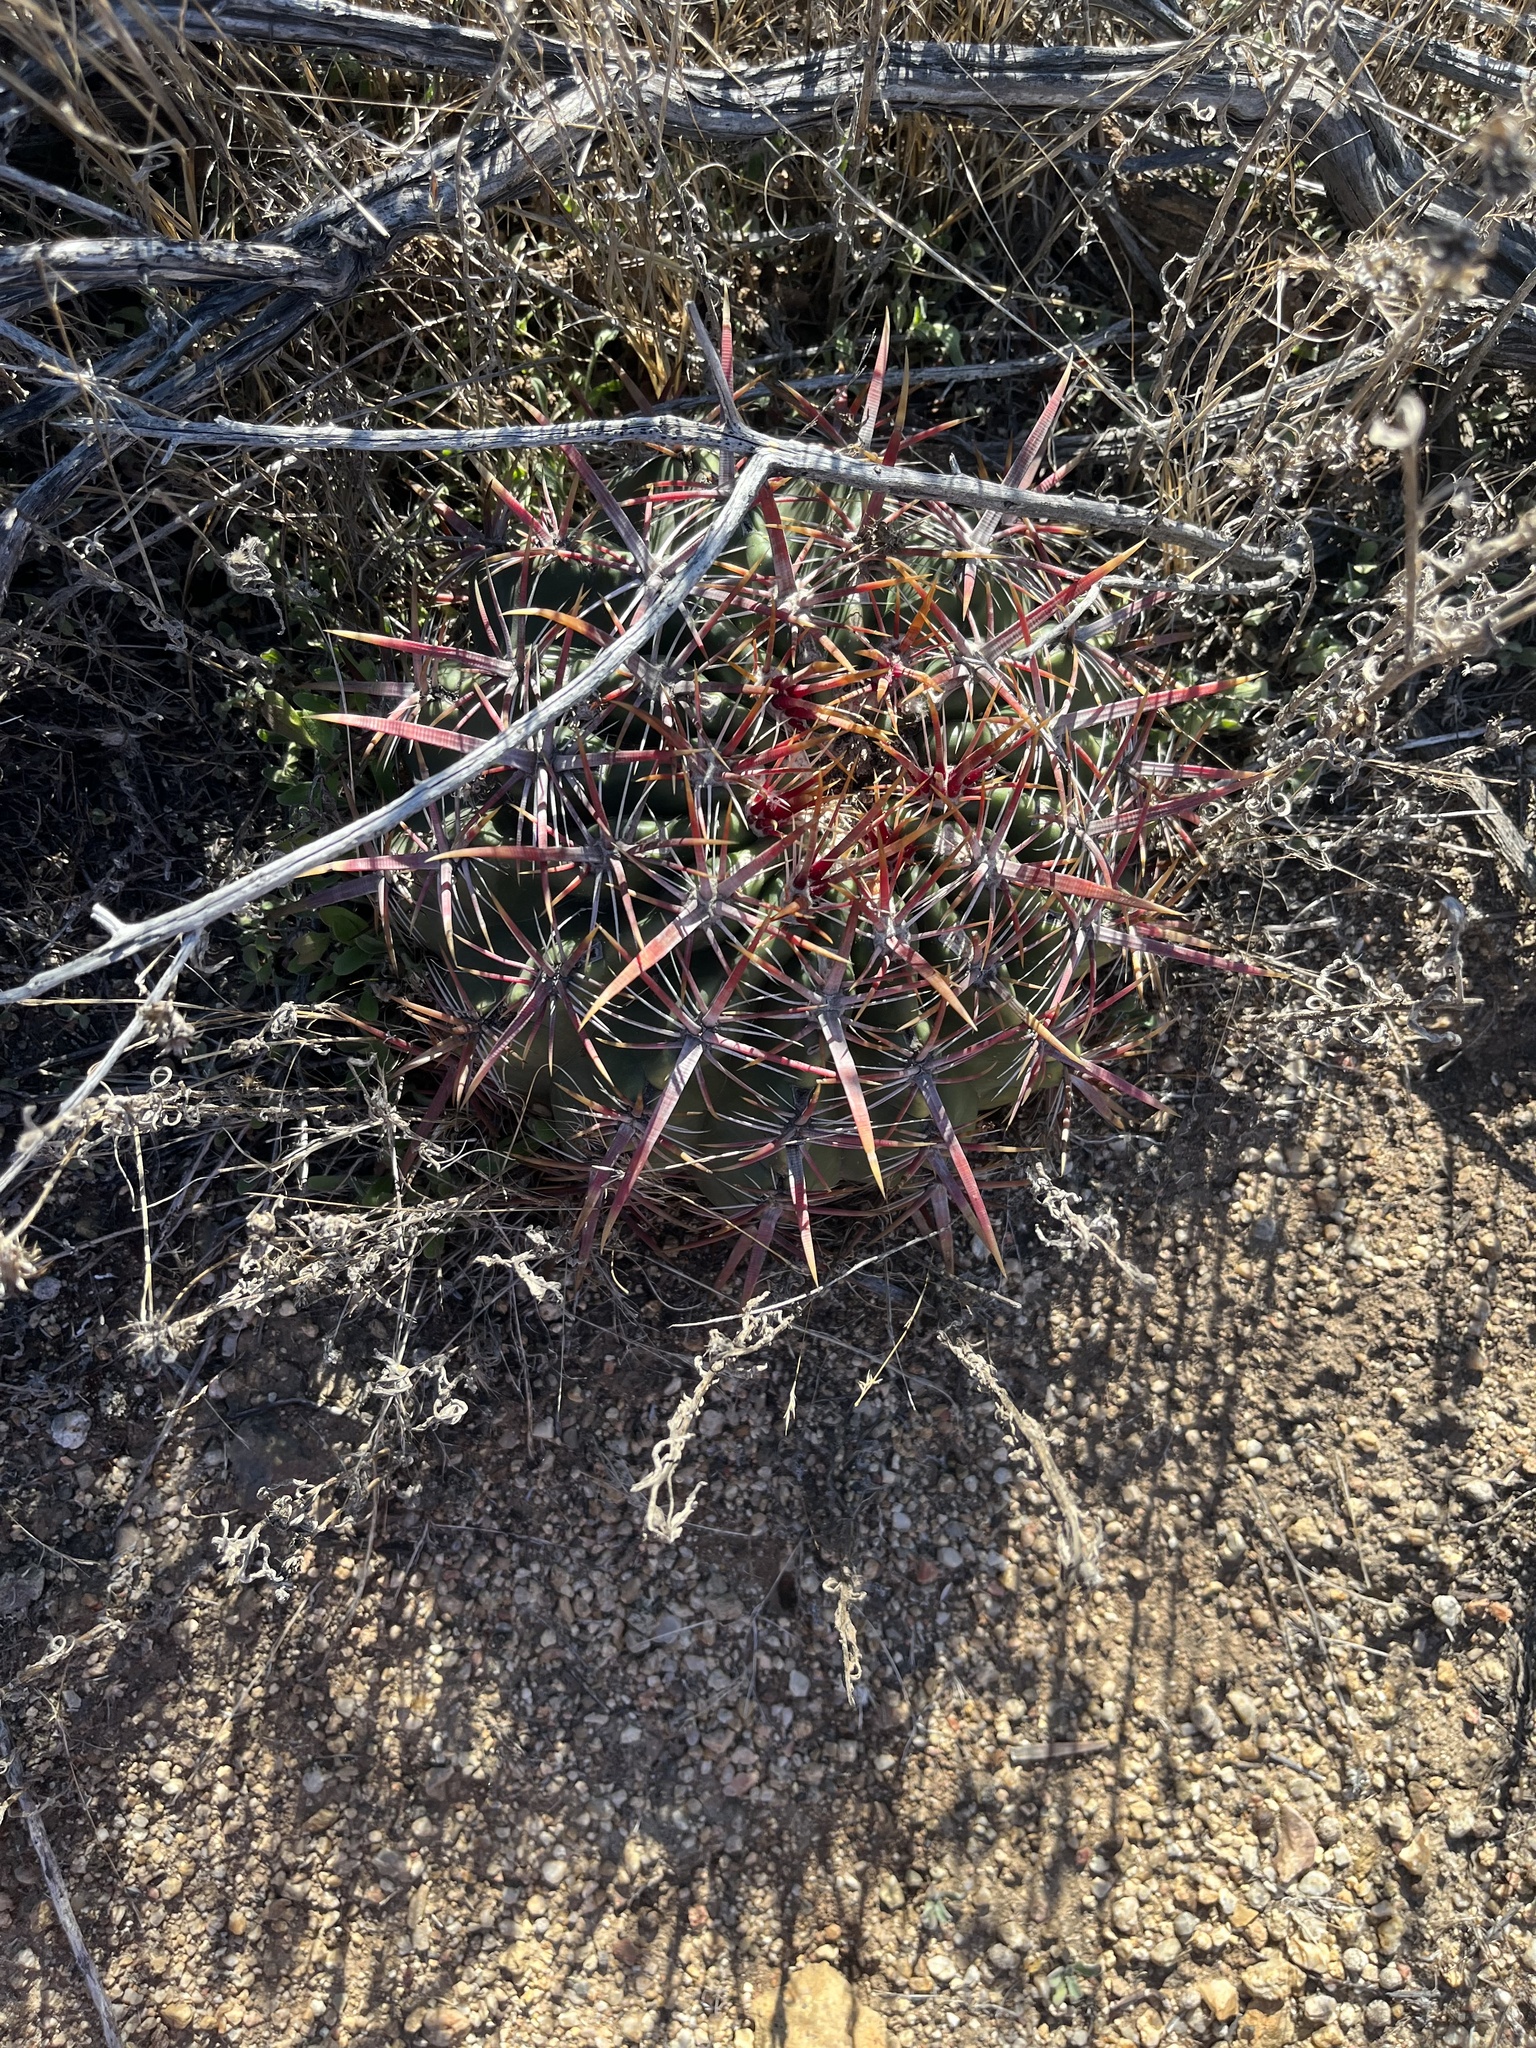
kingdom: Plantae
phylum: Tracheophyta
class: Magnoliopsida
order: Caryophyllales
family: Cactaceae
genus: Ferocactus
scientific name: Ferocactus viridescens
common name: San diego barrel cactus
